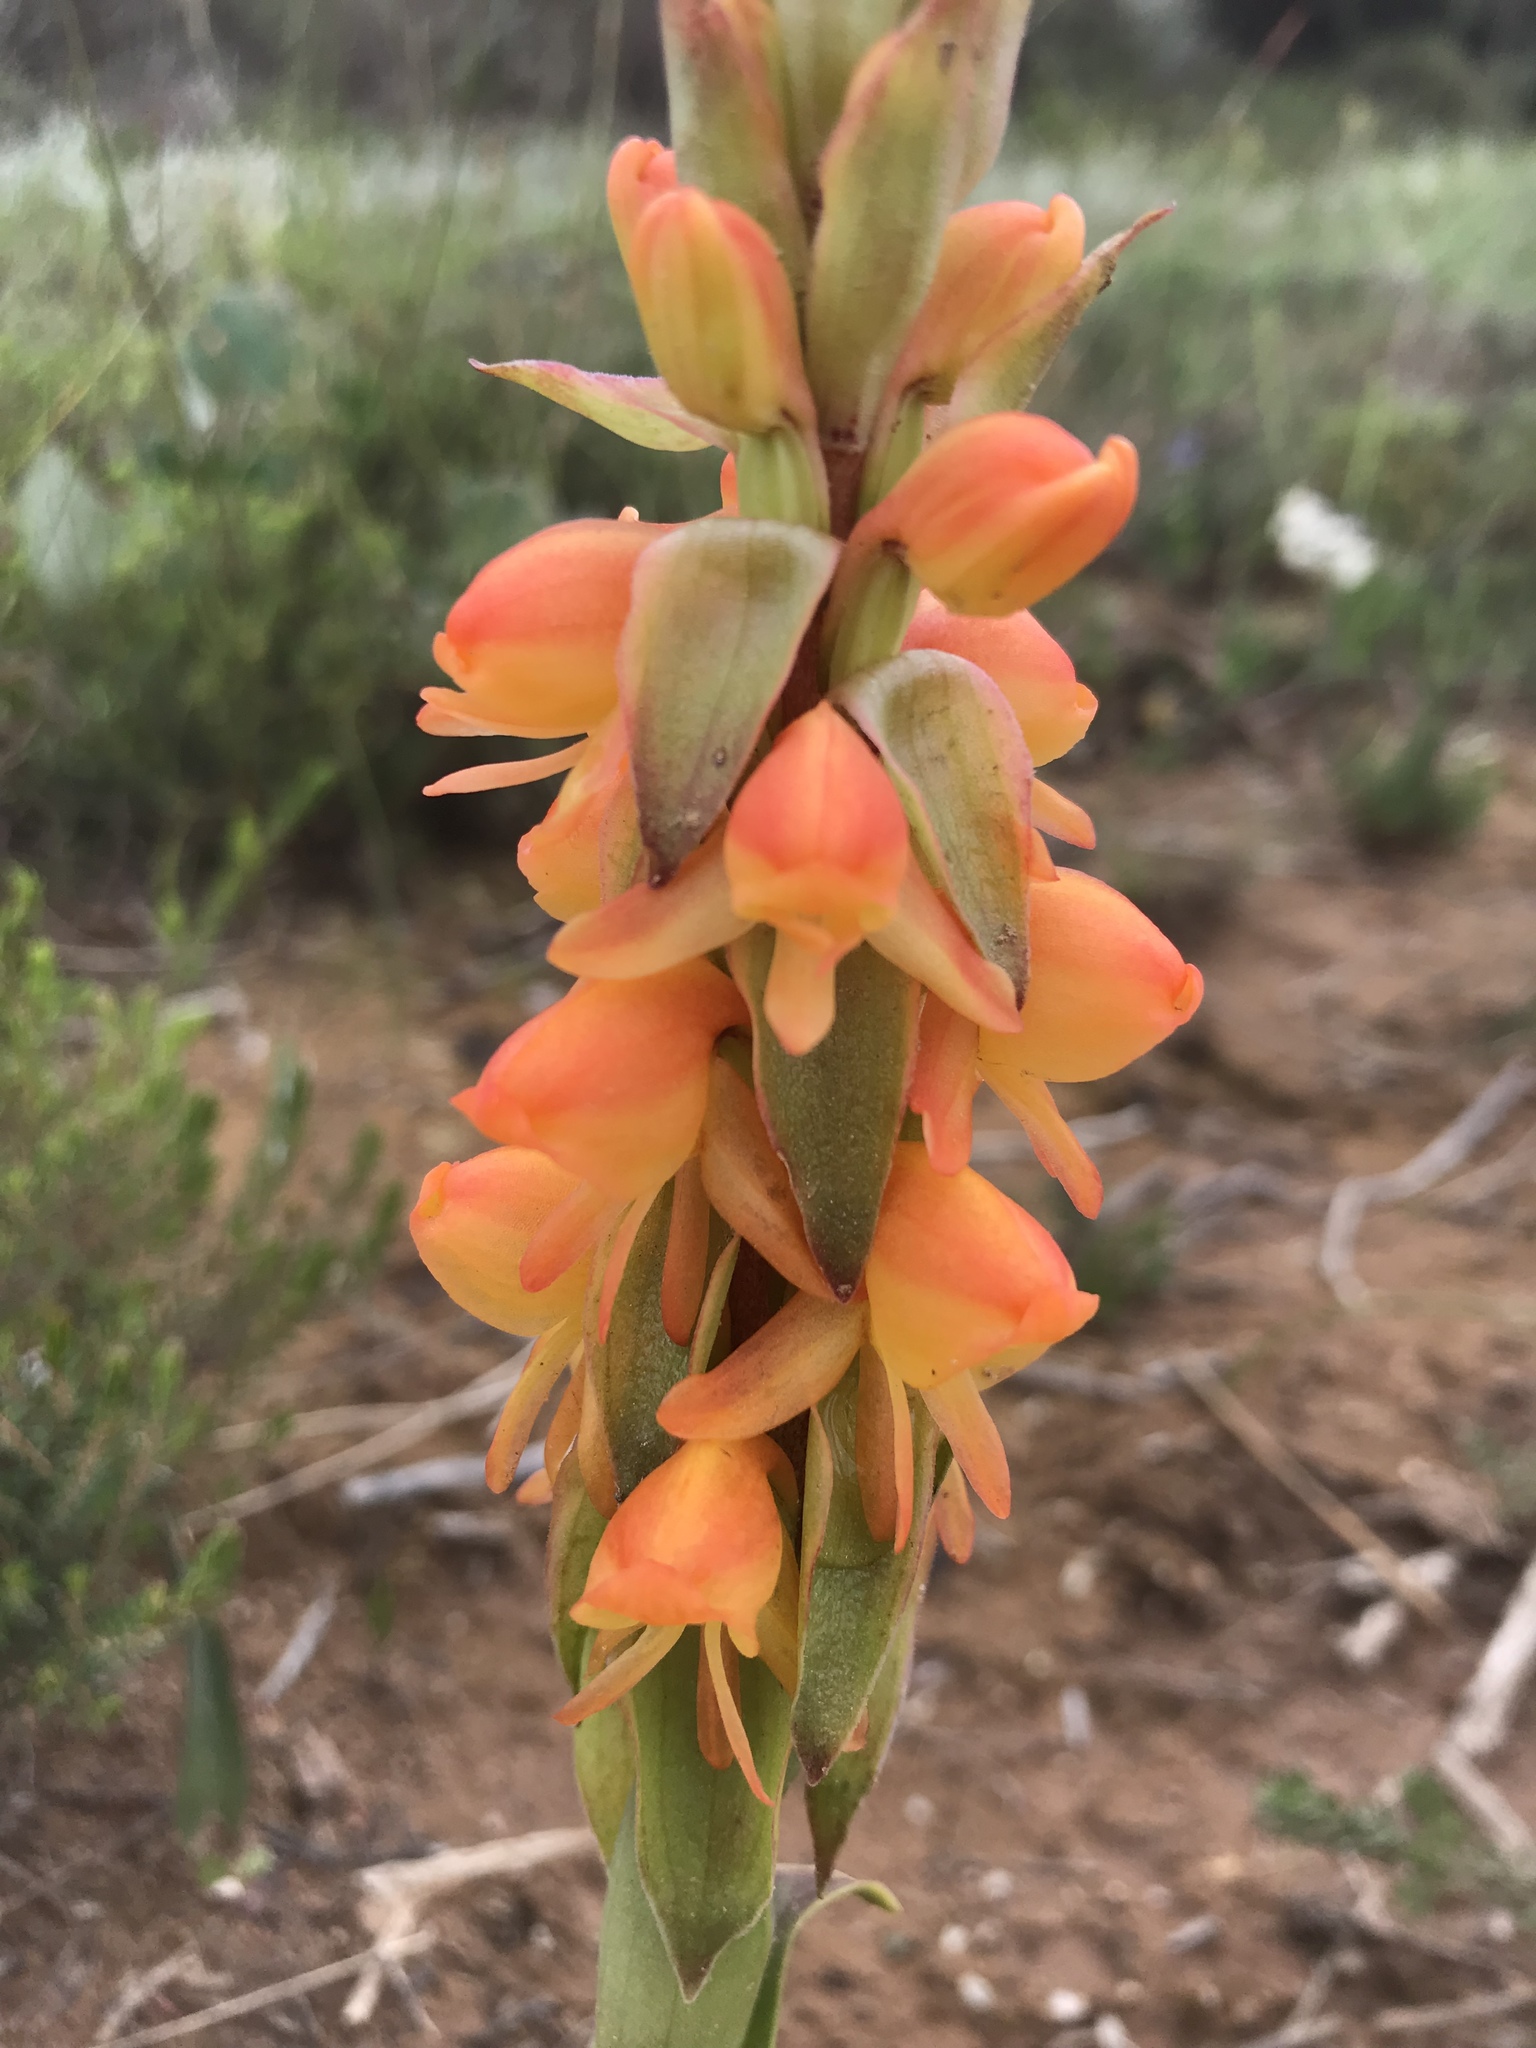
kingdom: Plantae
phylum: Tracheophyta
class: Liliopsida
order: Asparagales
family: Orchidaceae
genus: Satyrium
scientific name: Satyrium coriifolium
